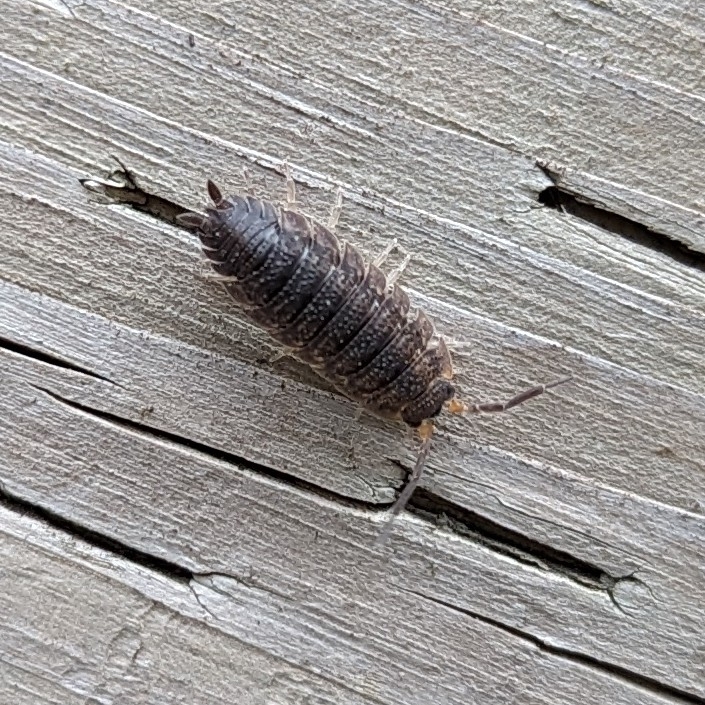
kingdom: Animalia
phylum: Arthropoda
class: Malacostraca
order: Isopoda
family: Porcellionidae
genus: Porcellio
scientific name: Porcellio scaber
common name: Common rough woodlouse
